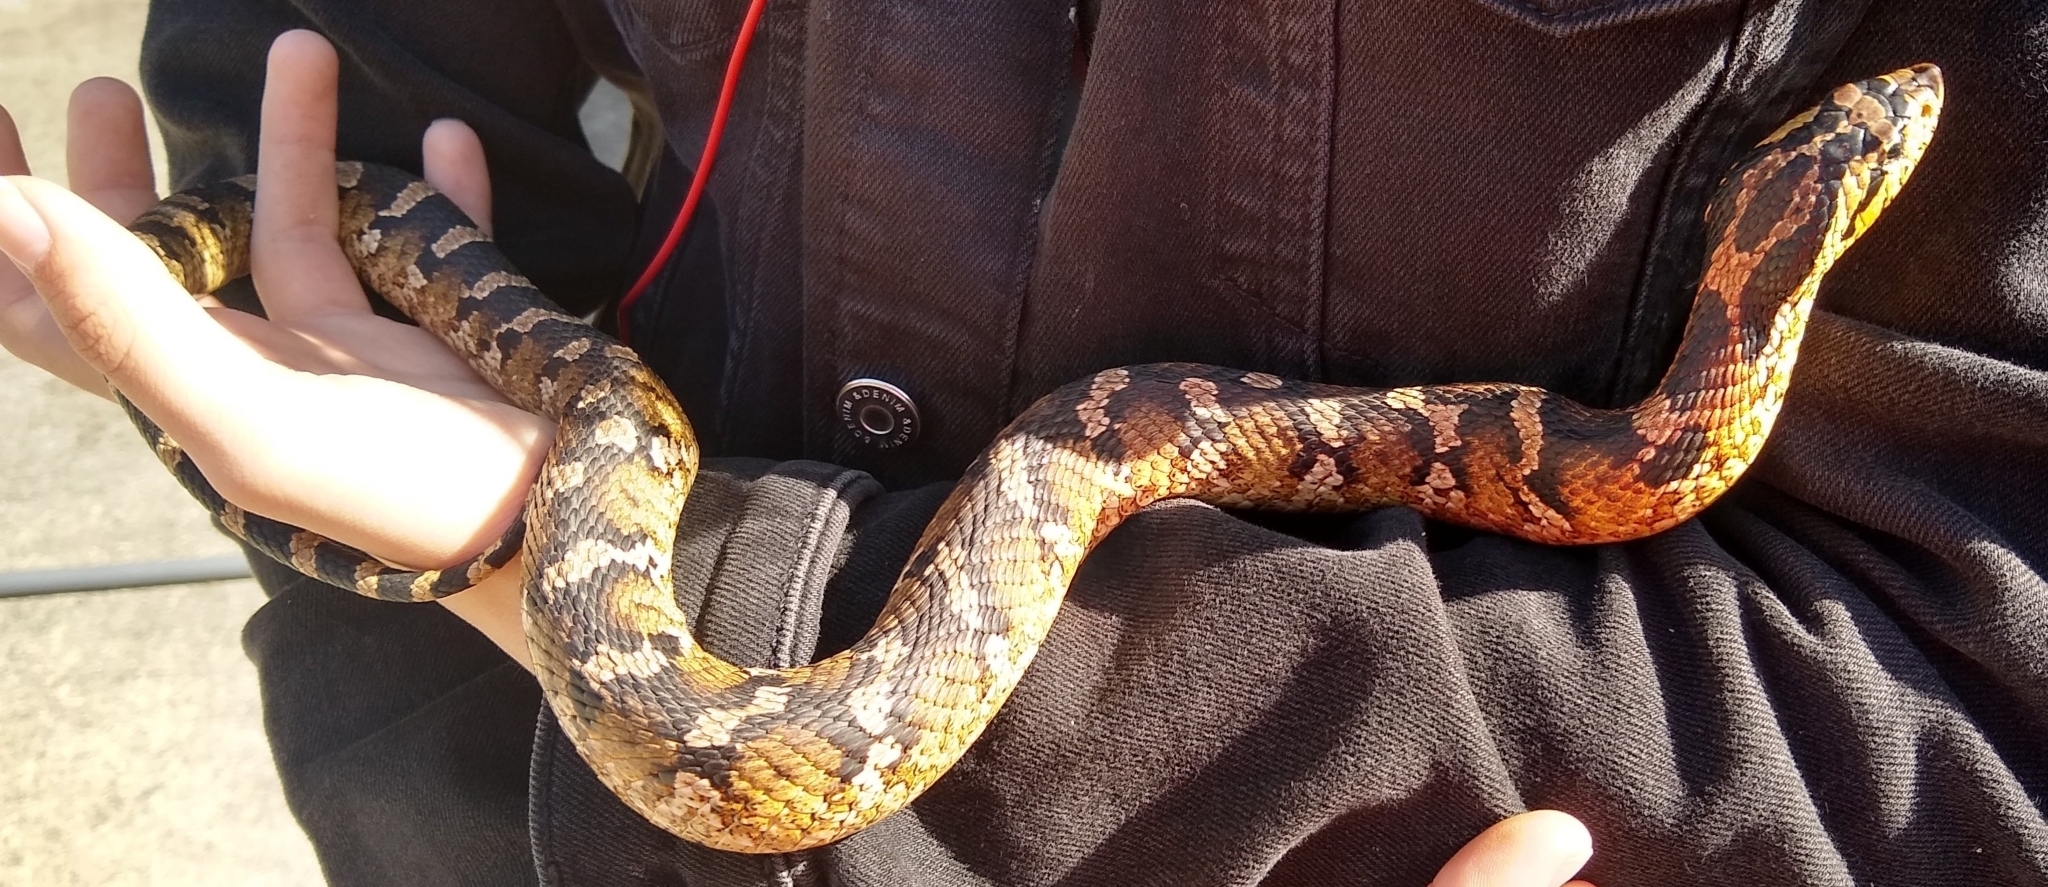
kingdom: Animalia
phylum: Chordata
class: Squamata
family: Colubridae
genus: Heterodon
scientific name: Heterodon platirhinos
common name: Eastern hognose snake
